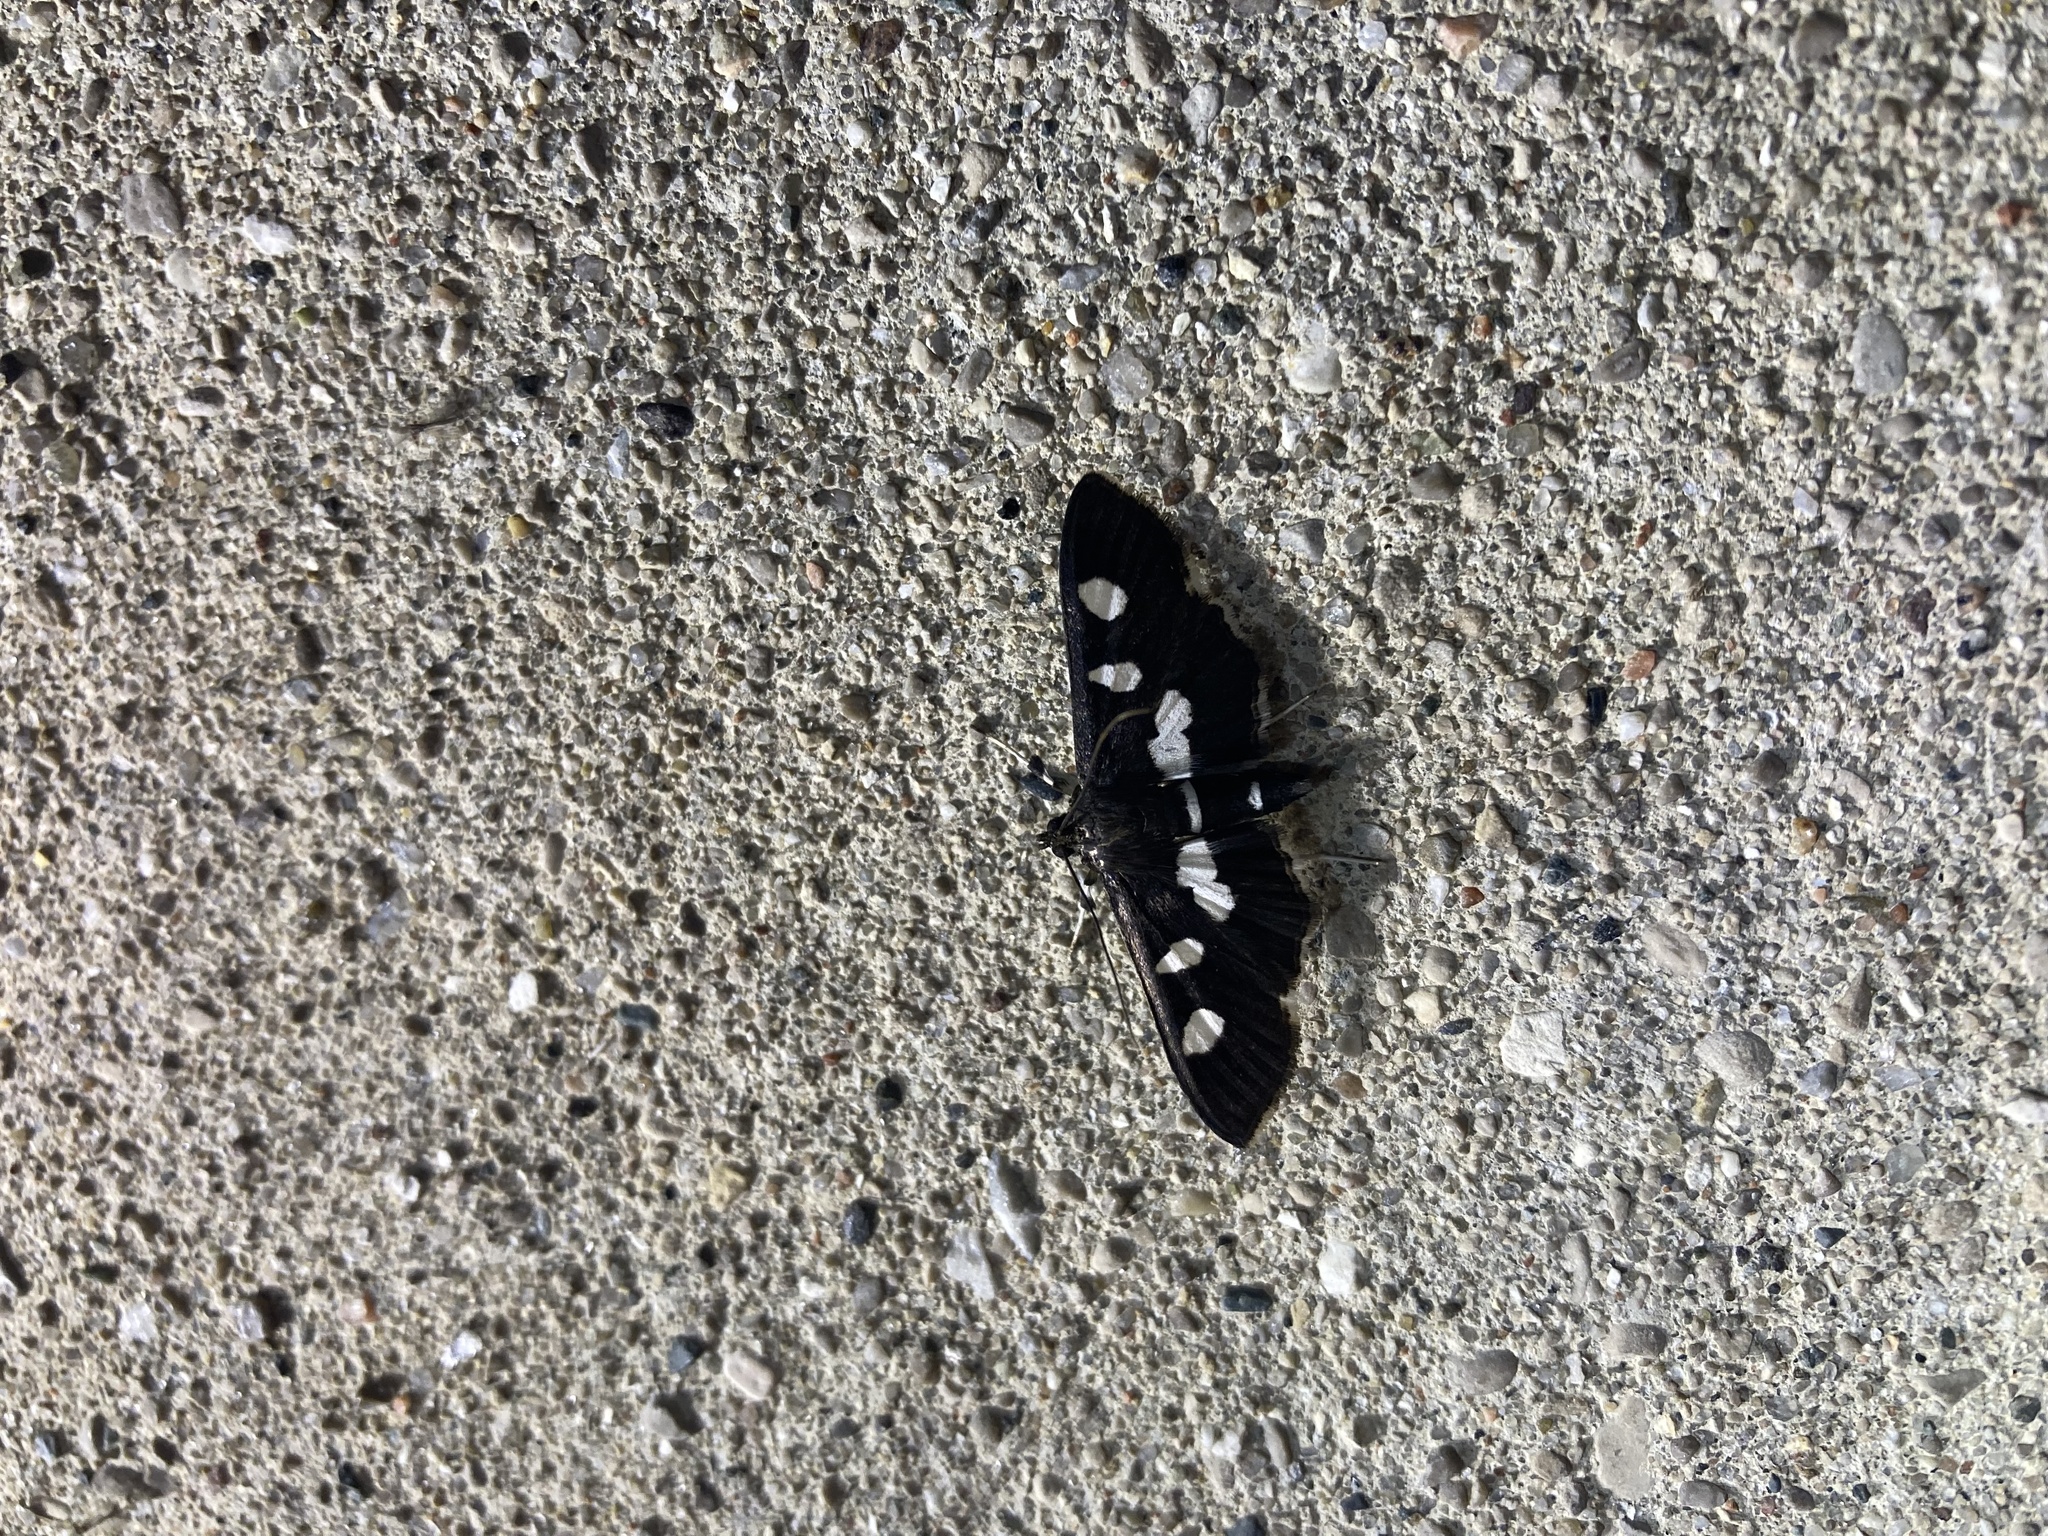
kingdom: Animalia
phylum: Arthropoda
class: Insecta
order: Lepidoptera
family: Crambidae
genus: Desmia
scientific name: Desmia
